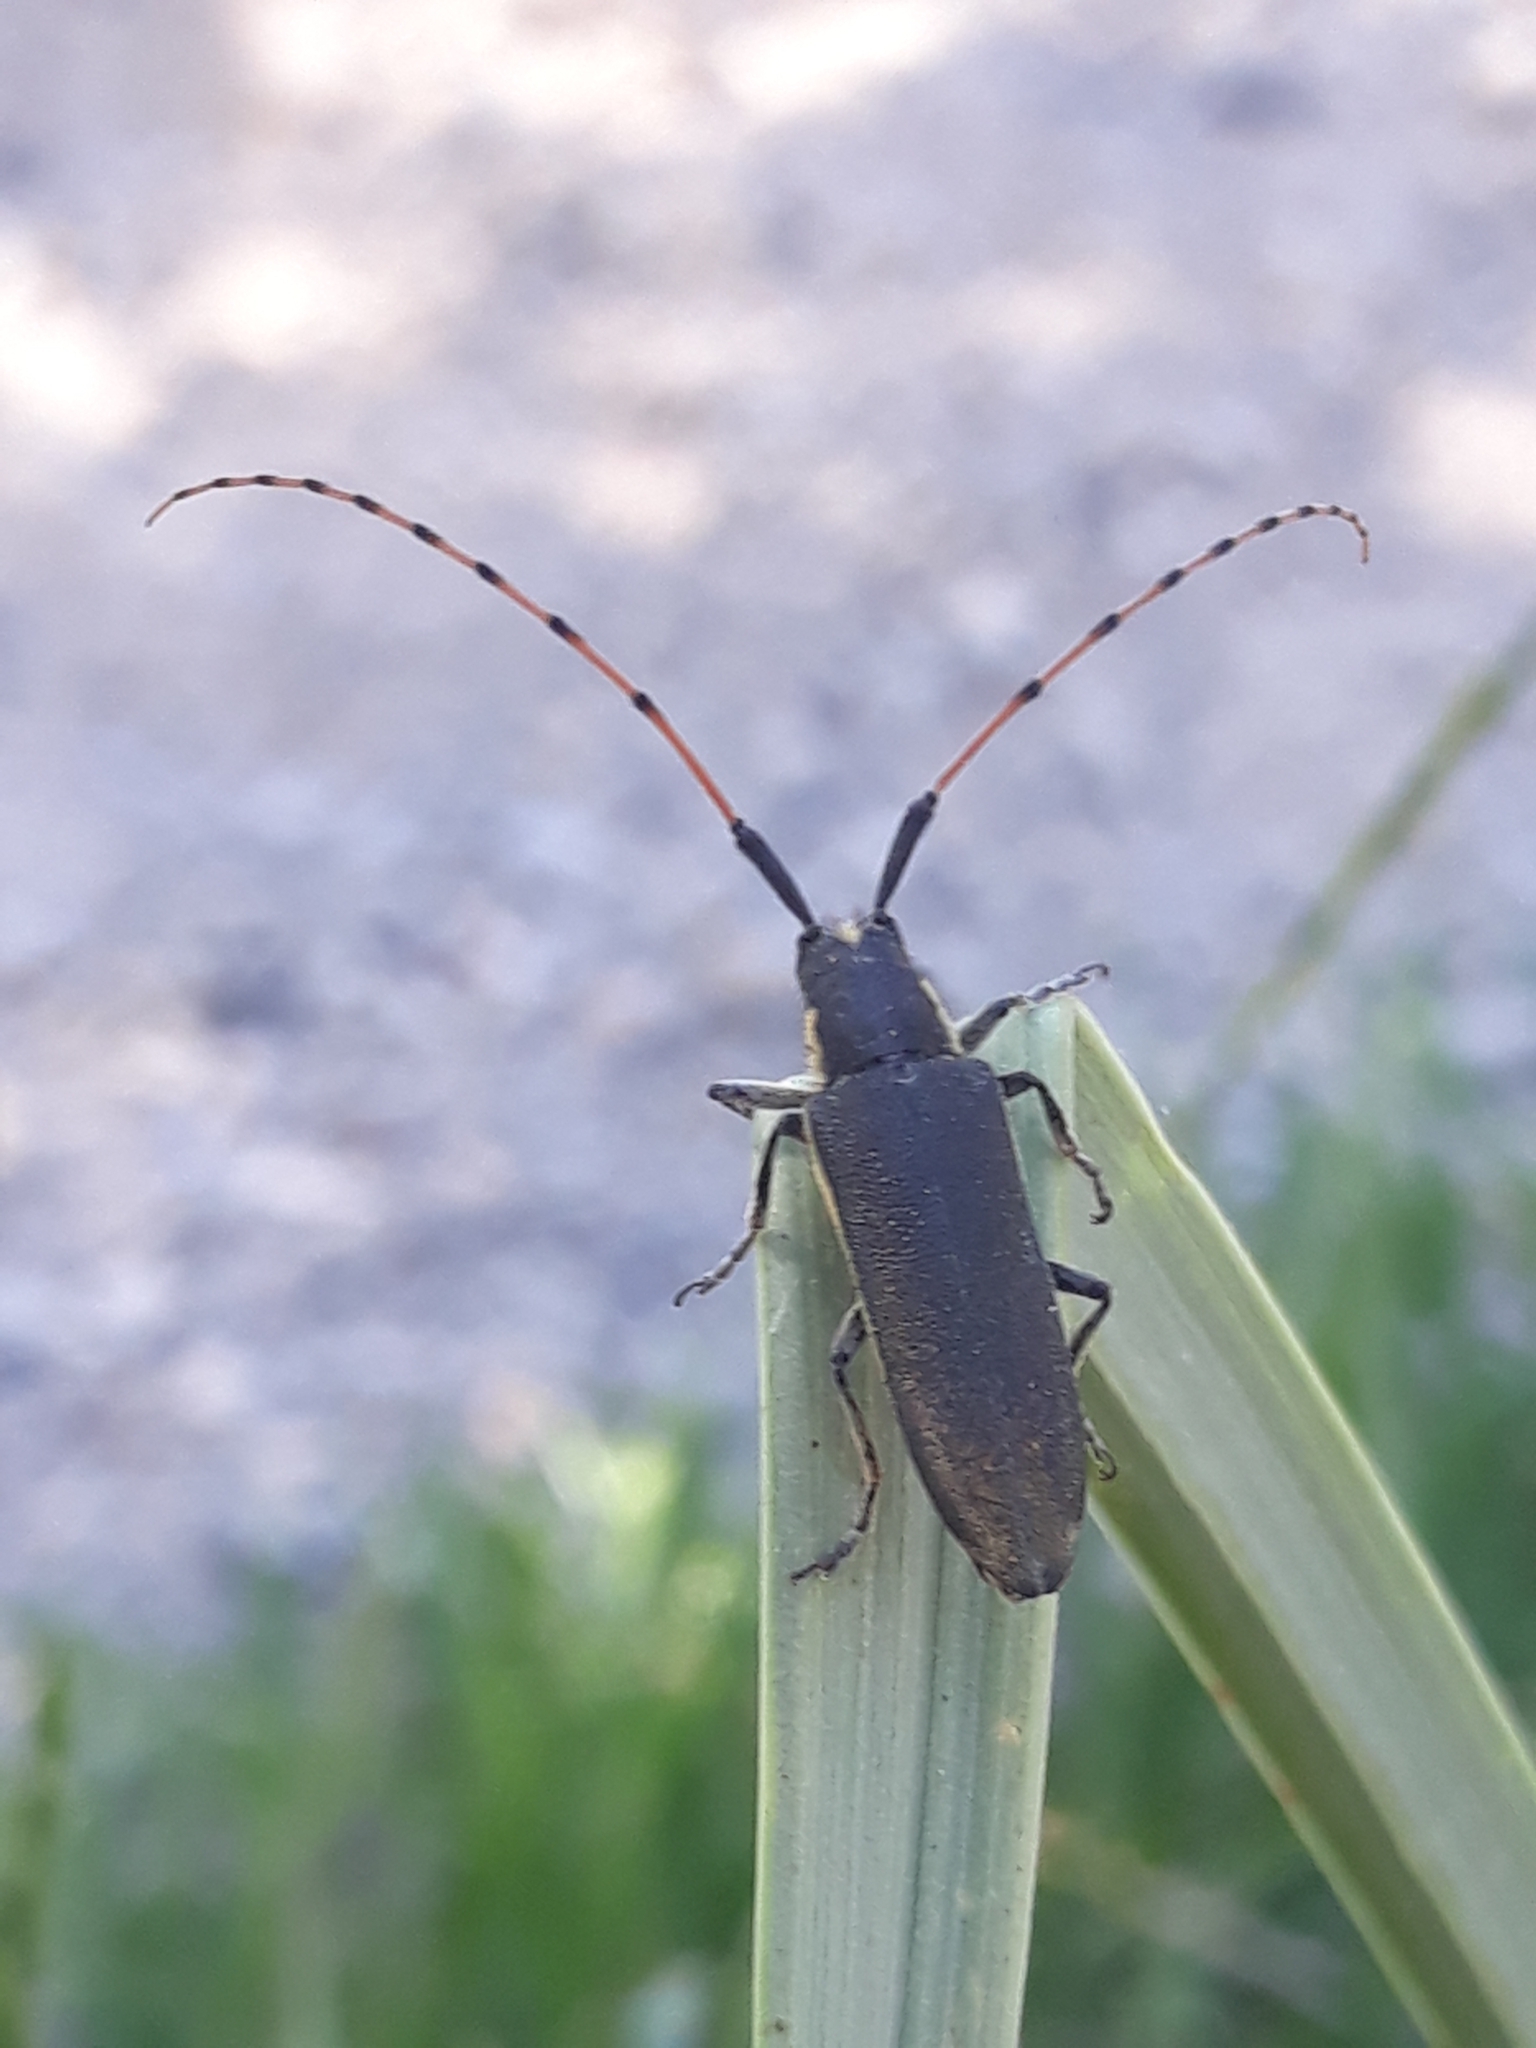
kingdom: Animalia
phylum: Arthropoda
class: Insecta
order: Coleoptera
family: Cerambycidae
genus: Agapanthia
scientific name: Agapanthia annularis
